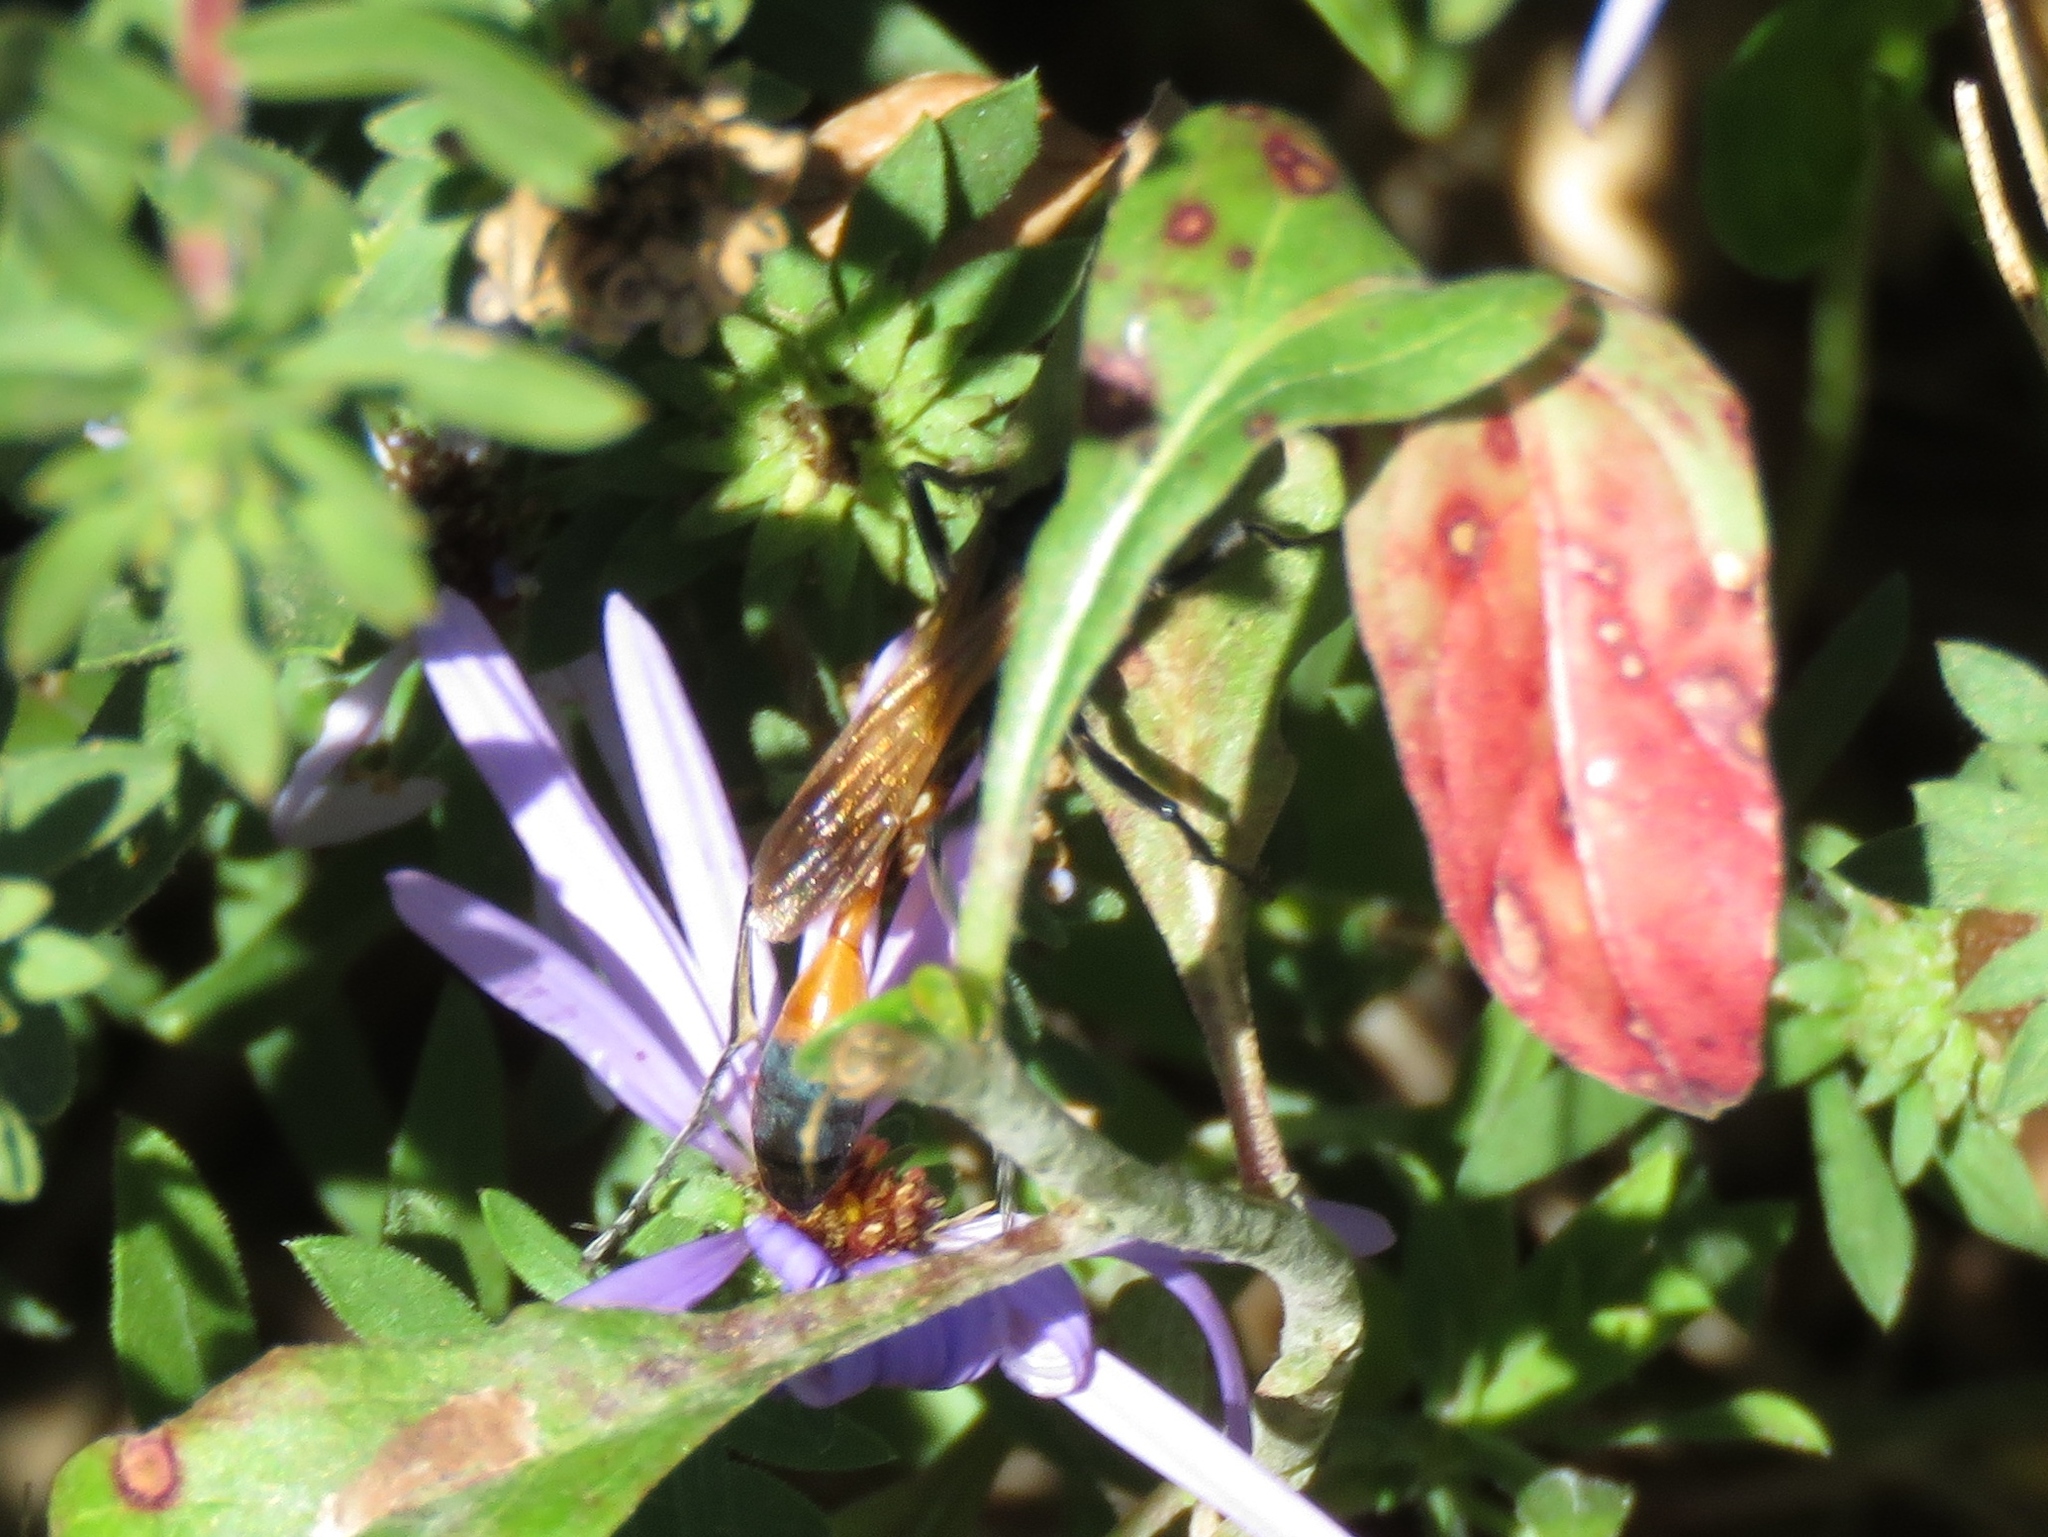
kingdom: Animalia
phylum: Arthropoda
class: Insecta
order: Hymenoptera
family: Sphecidae
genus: Ammophila
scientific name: Ammophila pictipennis
